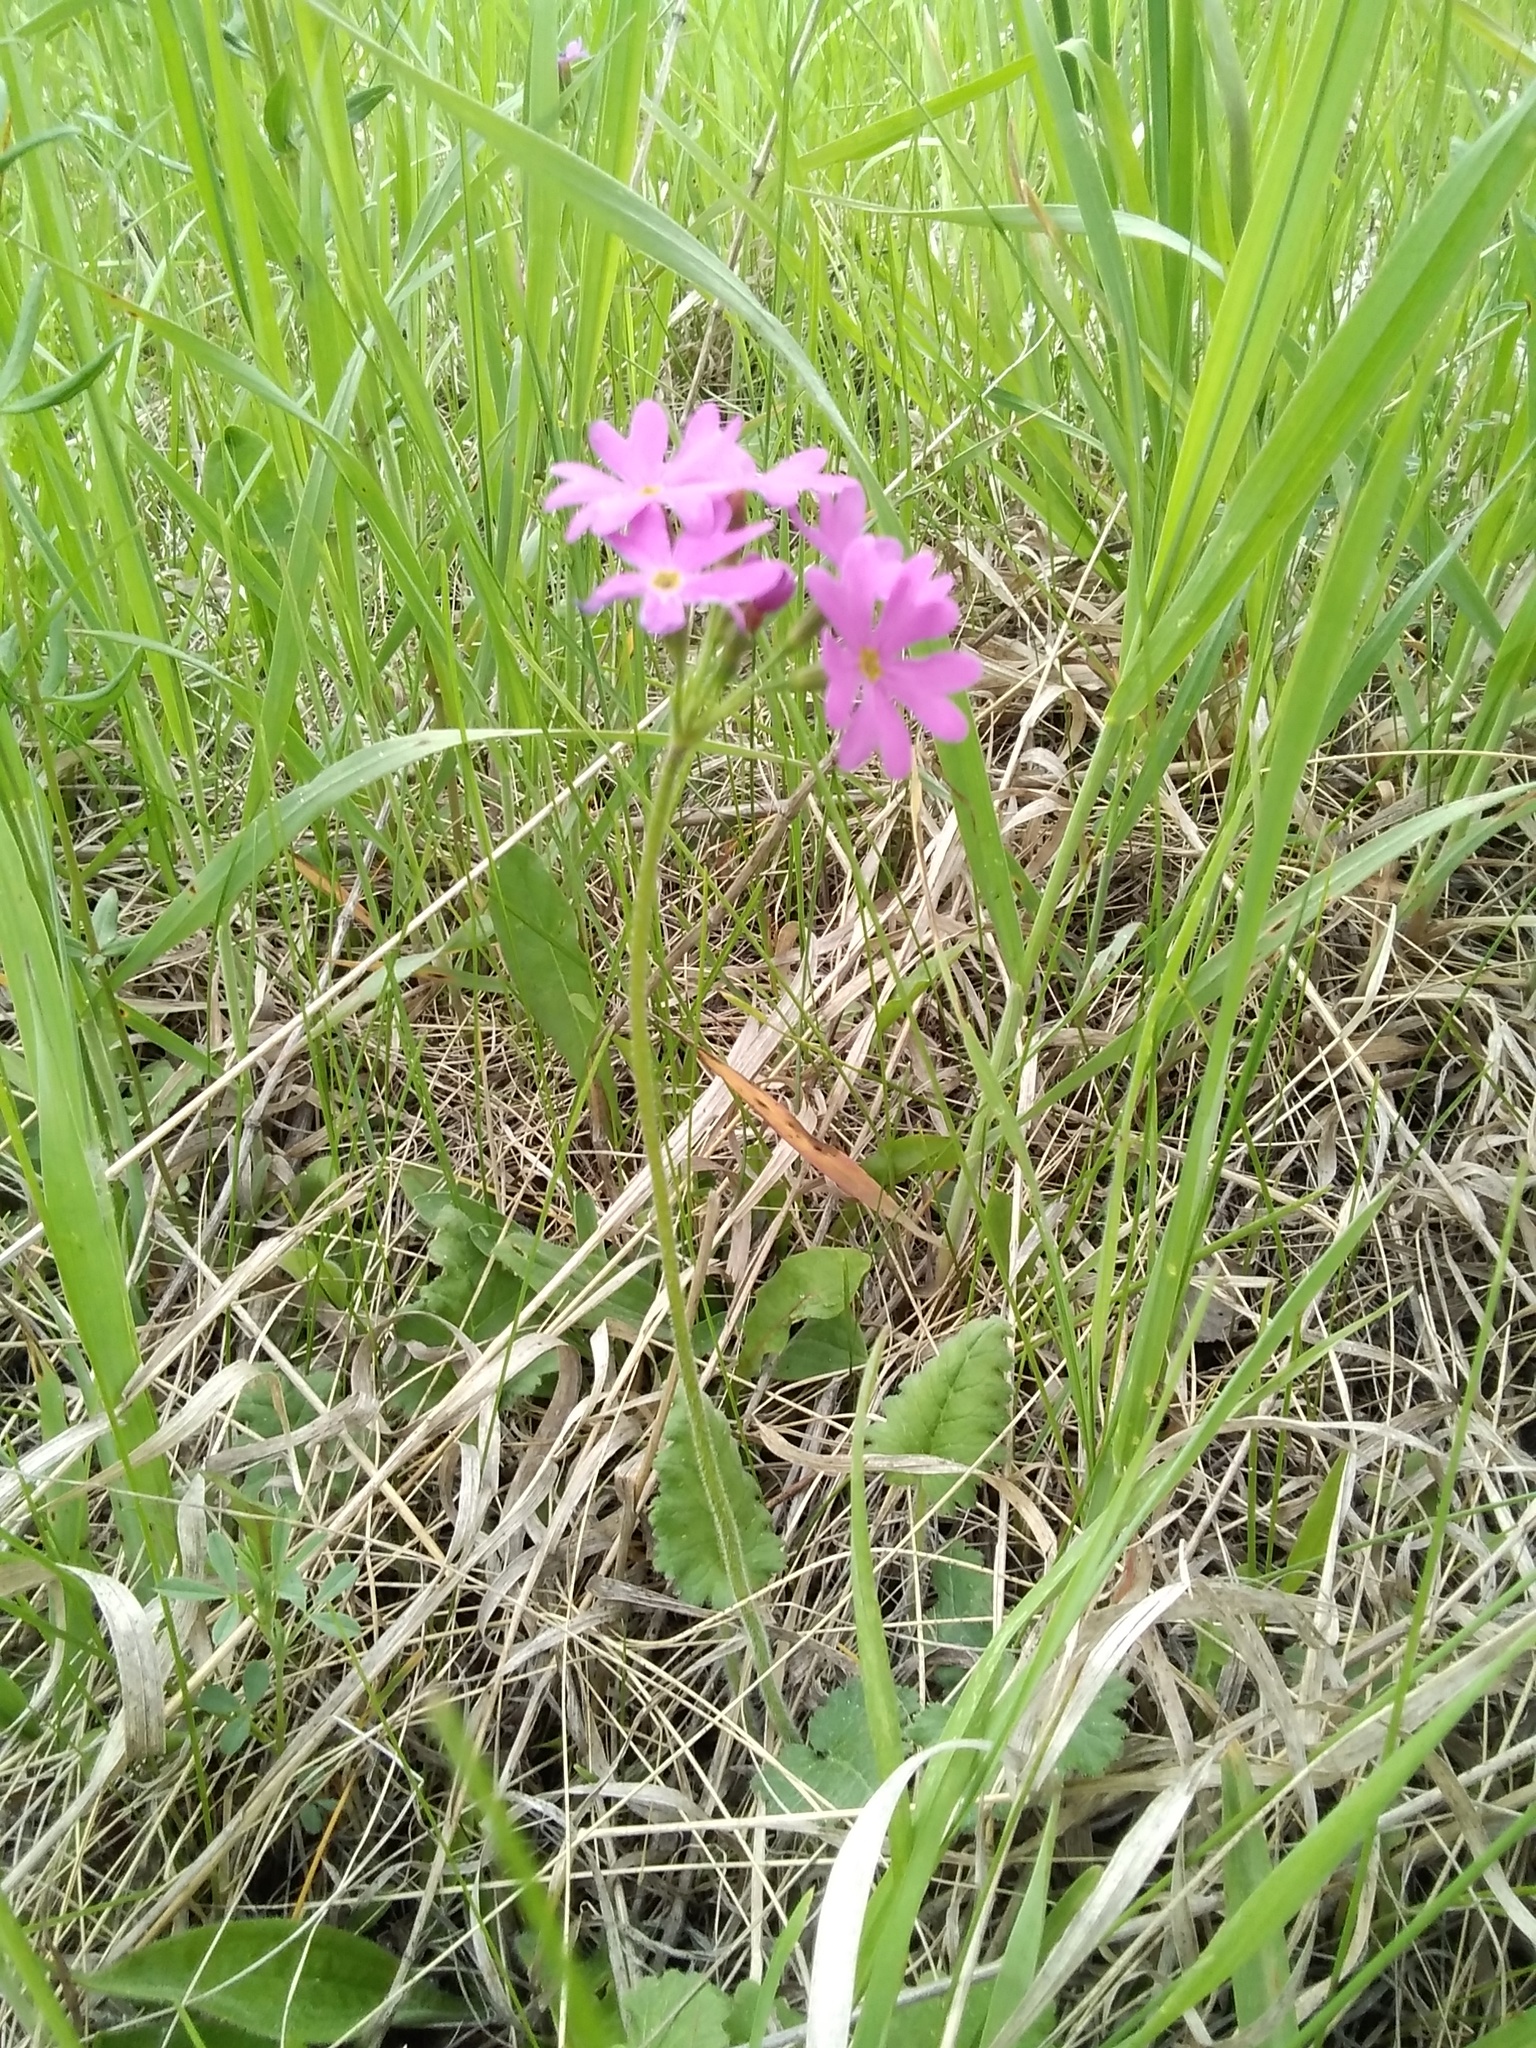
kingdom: Plantae
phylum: Tracheophyta
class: Magnoliopsida
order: Ericales
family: Primulaceae
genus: Primula
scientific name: Primula cortusoides
